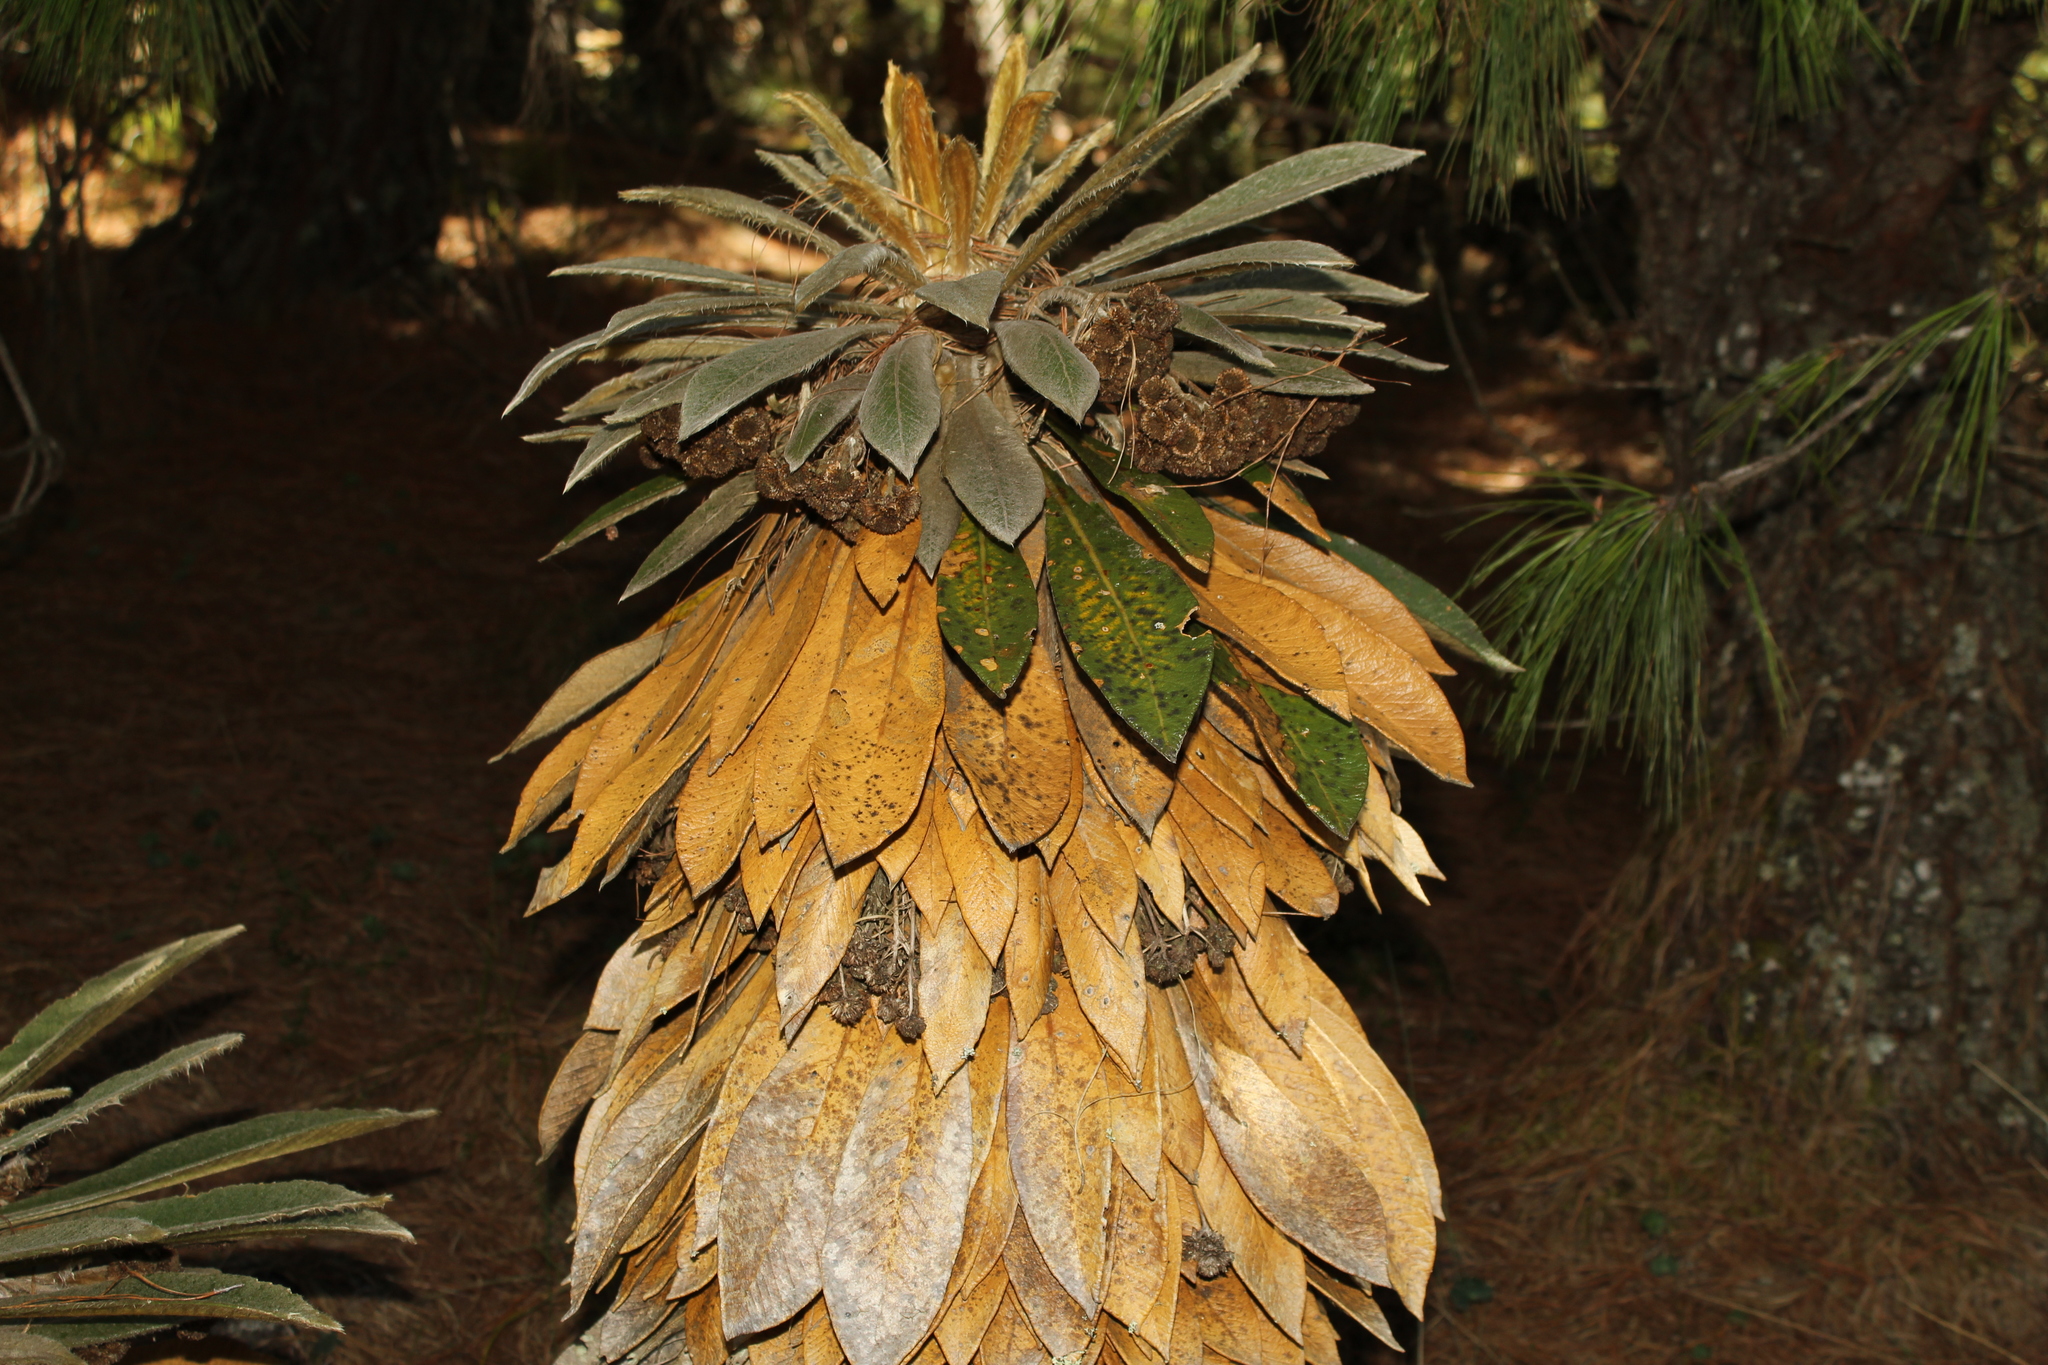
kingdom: Plantae
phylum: Tracheophyta
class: Magnoliopsida
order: Asterales
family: Asteraceae
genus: Espeletia
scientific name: Espeletia guacharaca
